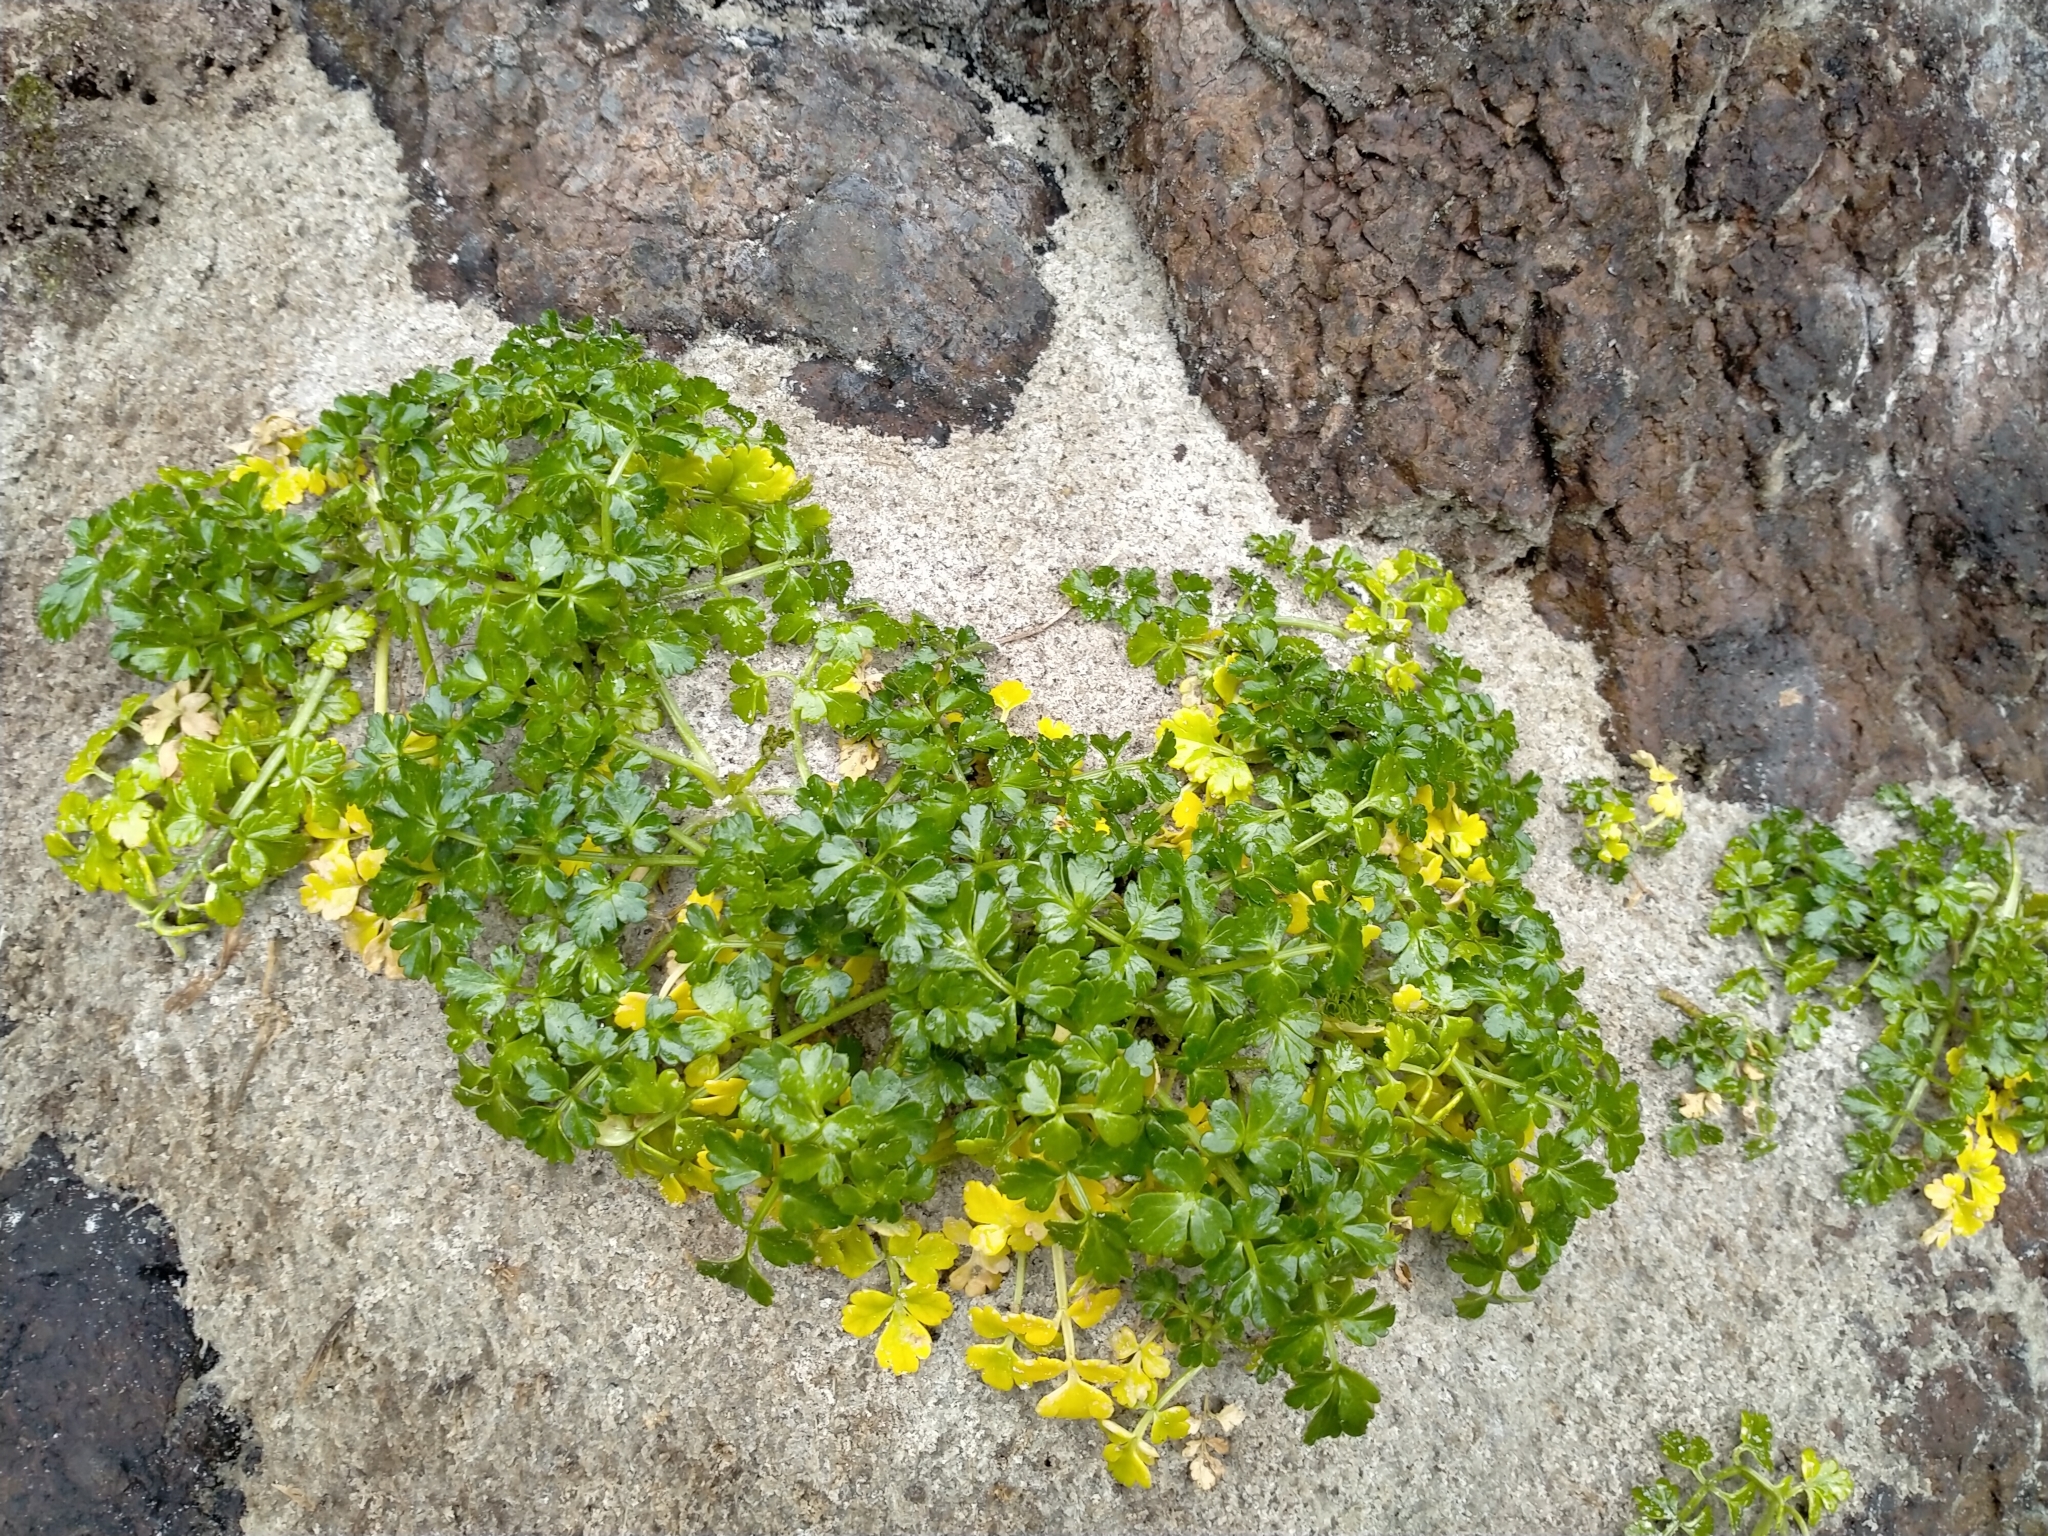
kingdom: Plantae
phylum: Tracheophyta
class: Magnoliopsida
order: Apiales
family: Apiaceae
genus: Apium
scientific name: Apium prostratum
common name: Prostrate marshwort
